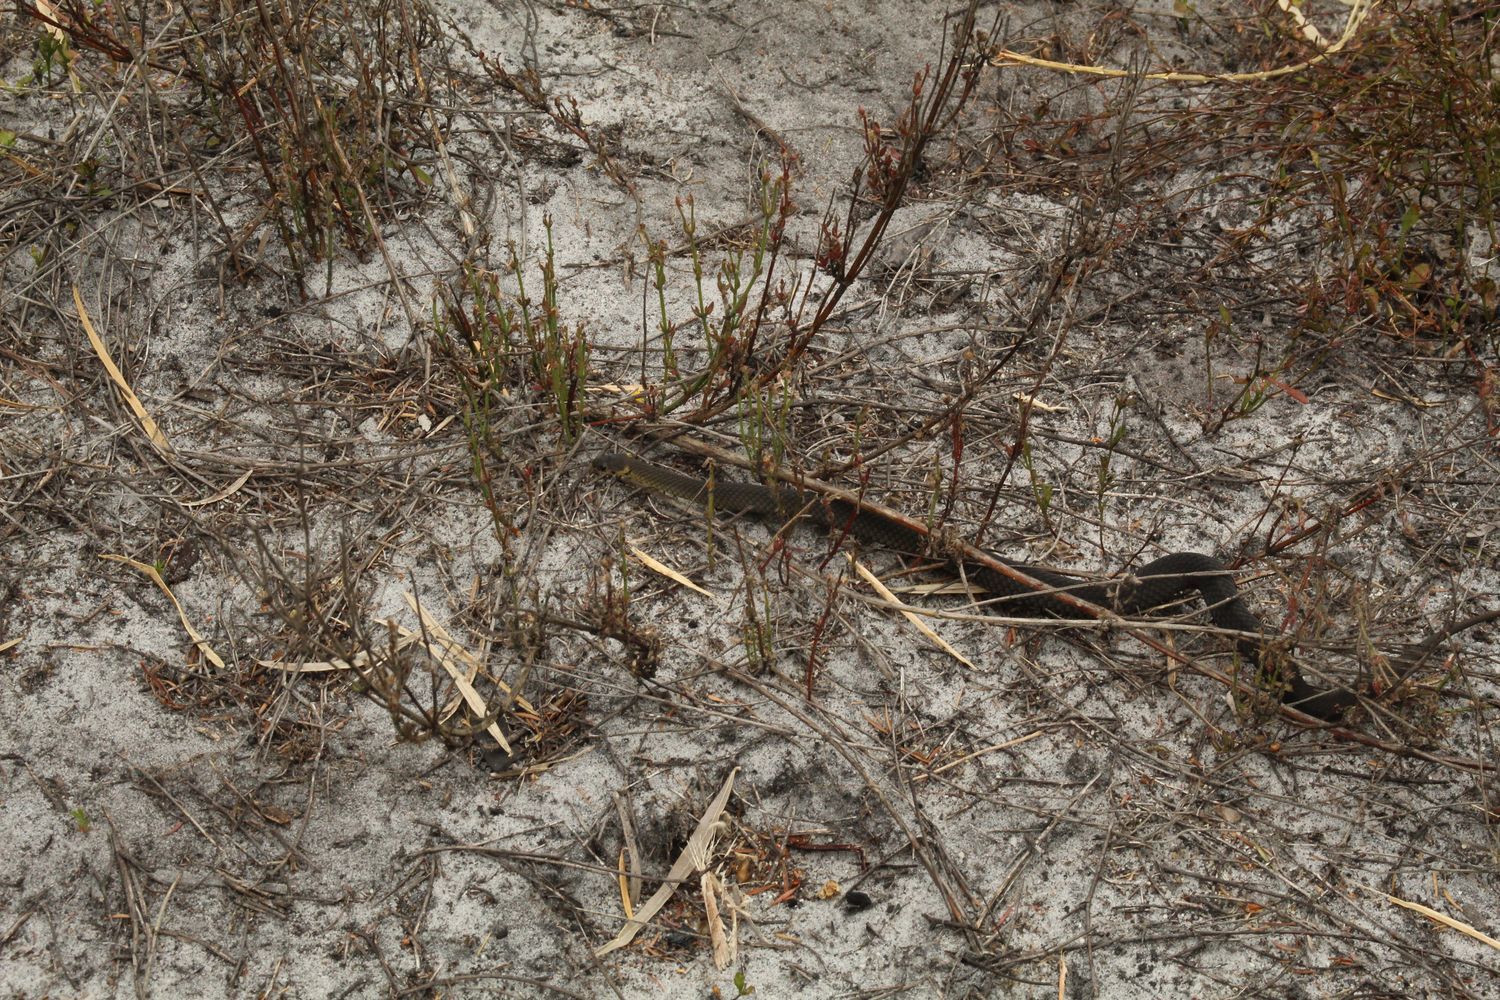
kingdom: Animalia
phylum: Chordata
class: Squamata
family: Elapidae
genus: Elapognathus
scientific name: Elapognathus minor
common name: Little brown snake
